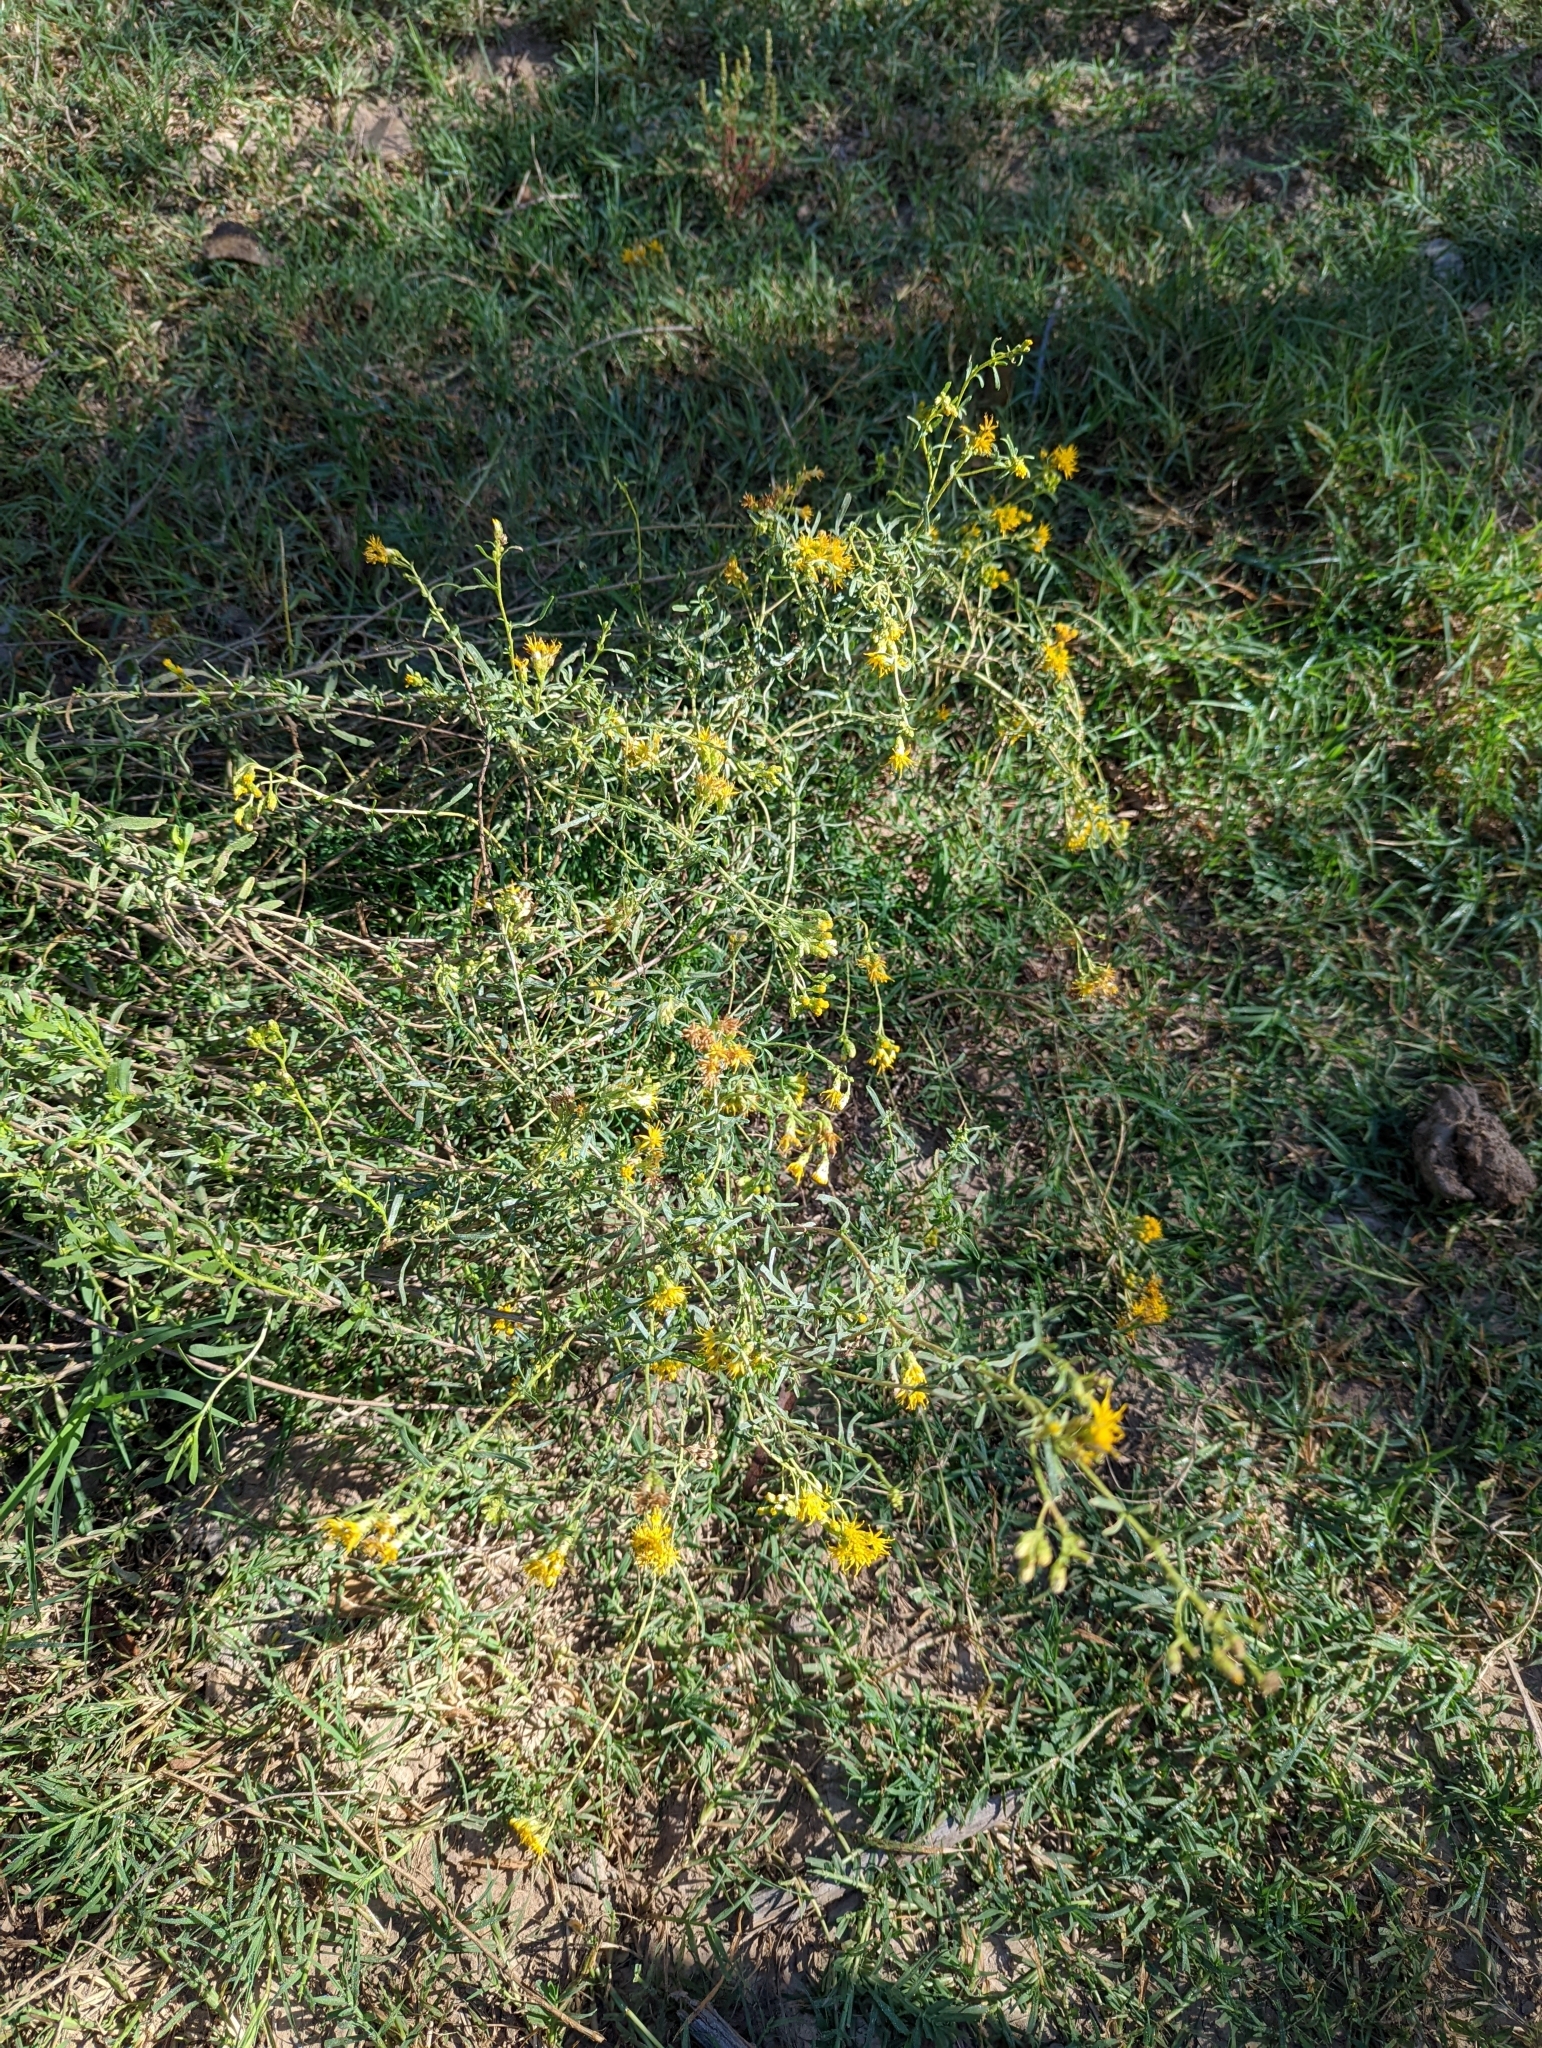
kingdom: Plantae
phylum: Tracheophyta
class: Magnoliopsida
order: Asterales
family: Asteraceae
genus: Isocoma
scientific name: Isocoma acradenia
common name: Alkali jimmyweed
